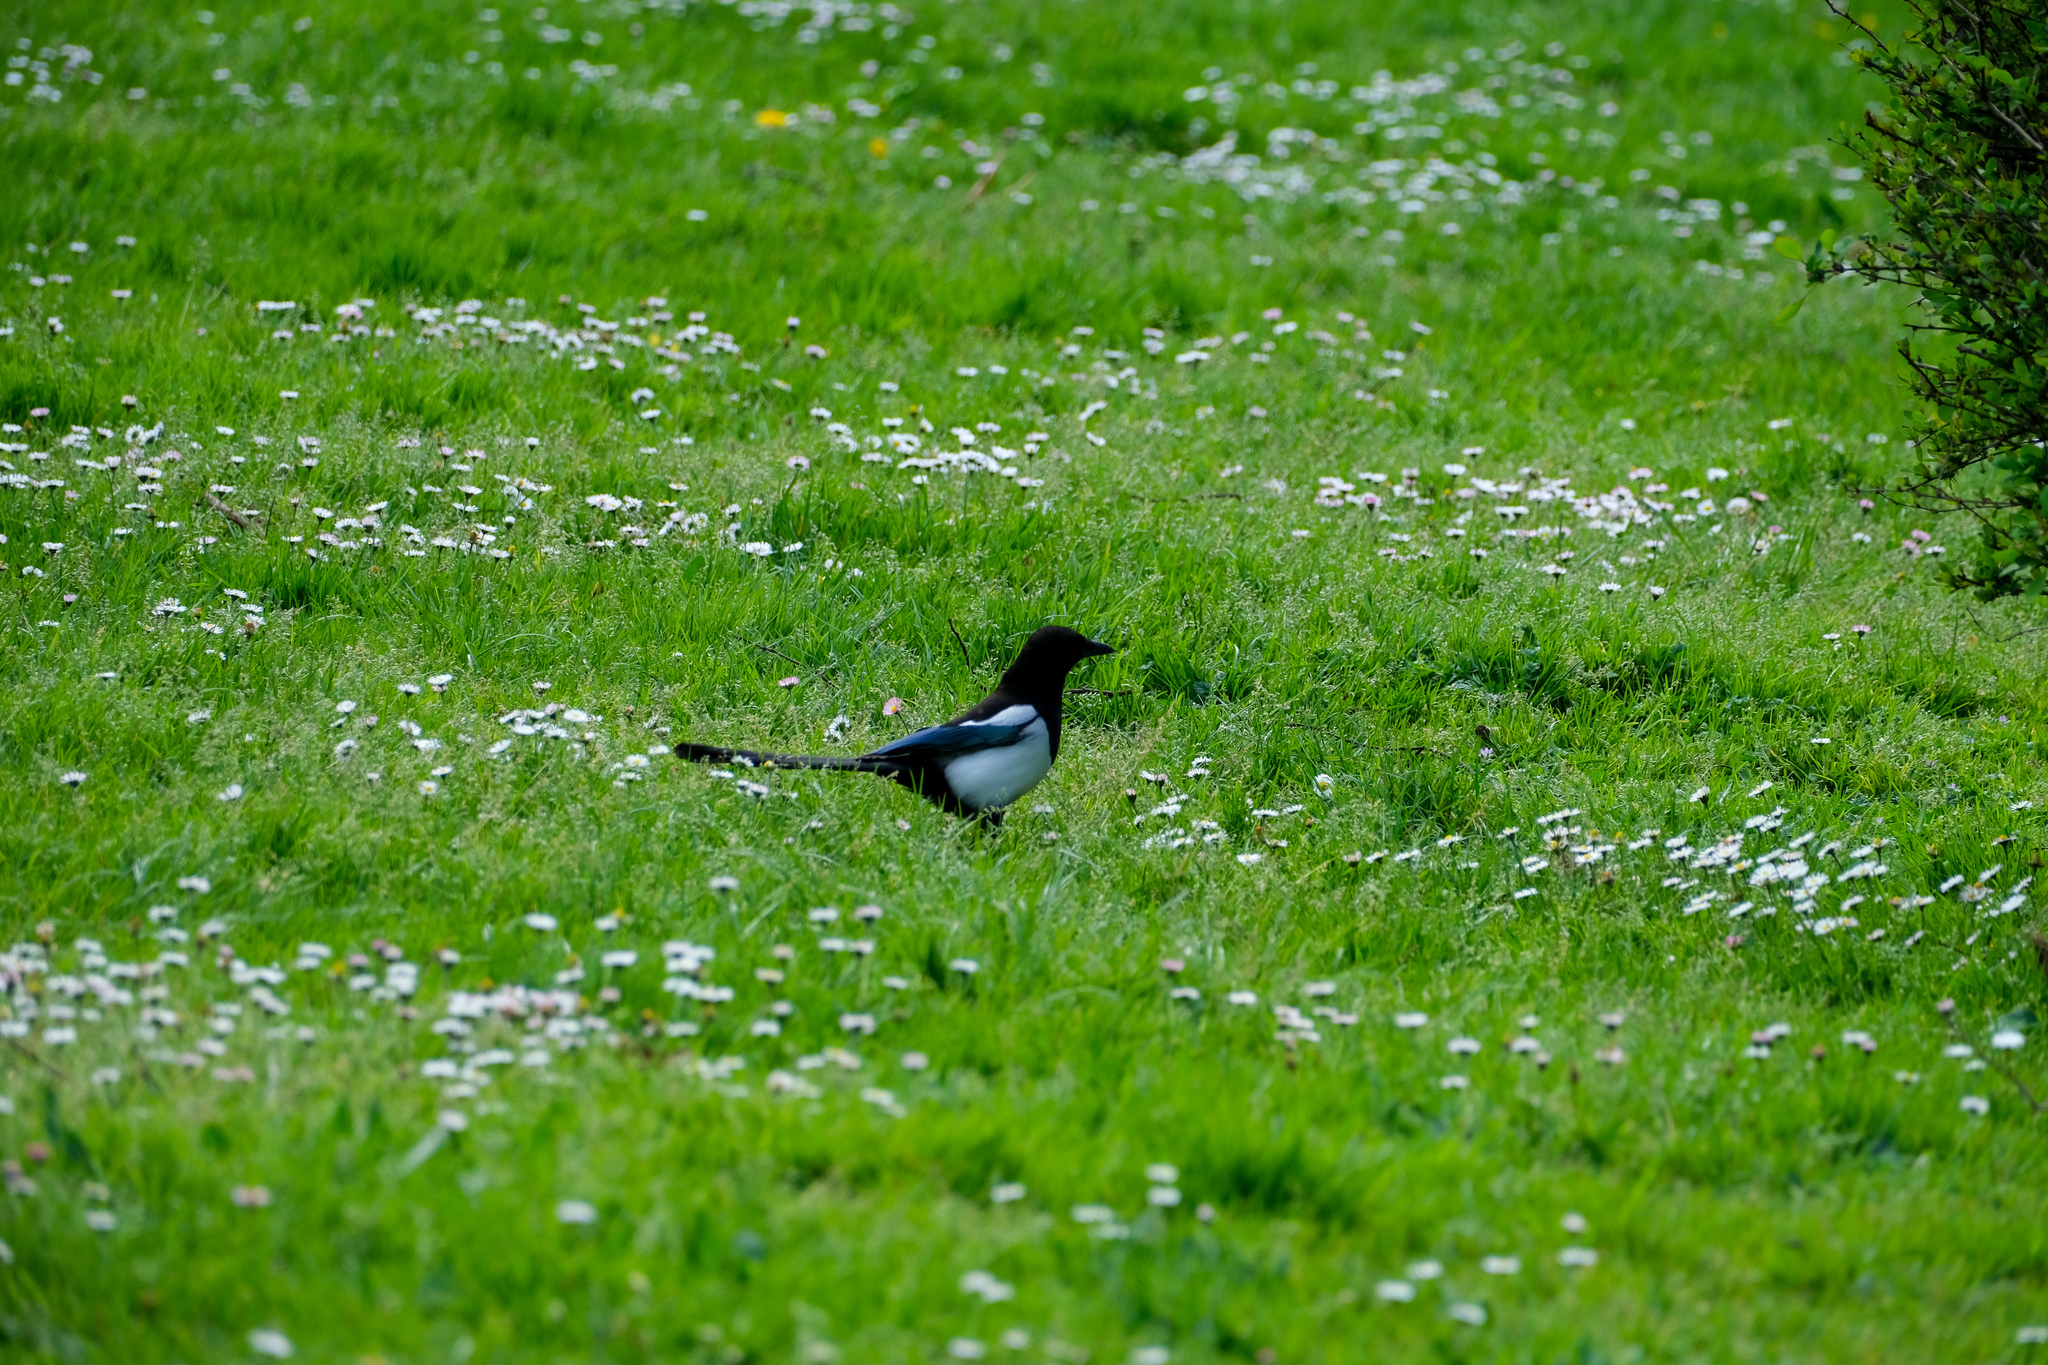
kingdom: Animalia
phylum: Chordata
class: Aves
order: Passeriformes
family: Corvidae
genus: Pica
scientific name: Pica pica
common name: Eurasian magpie
